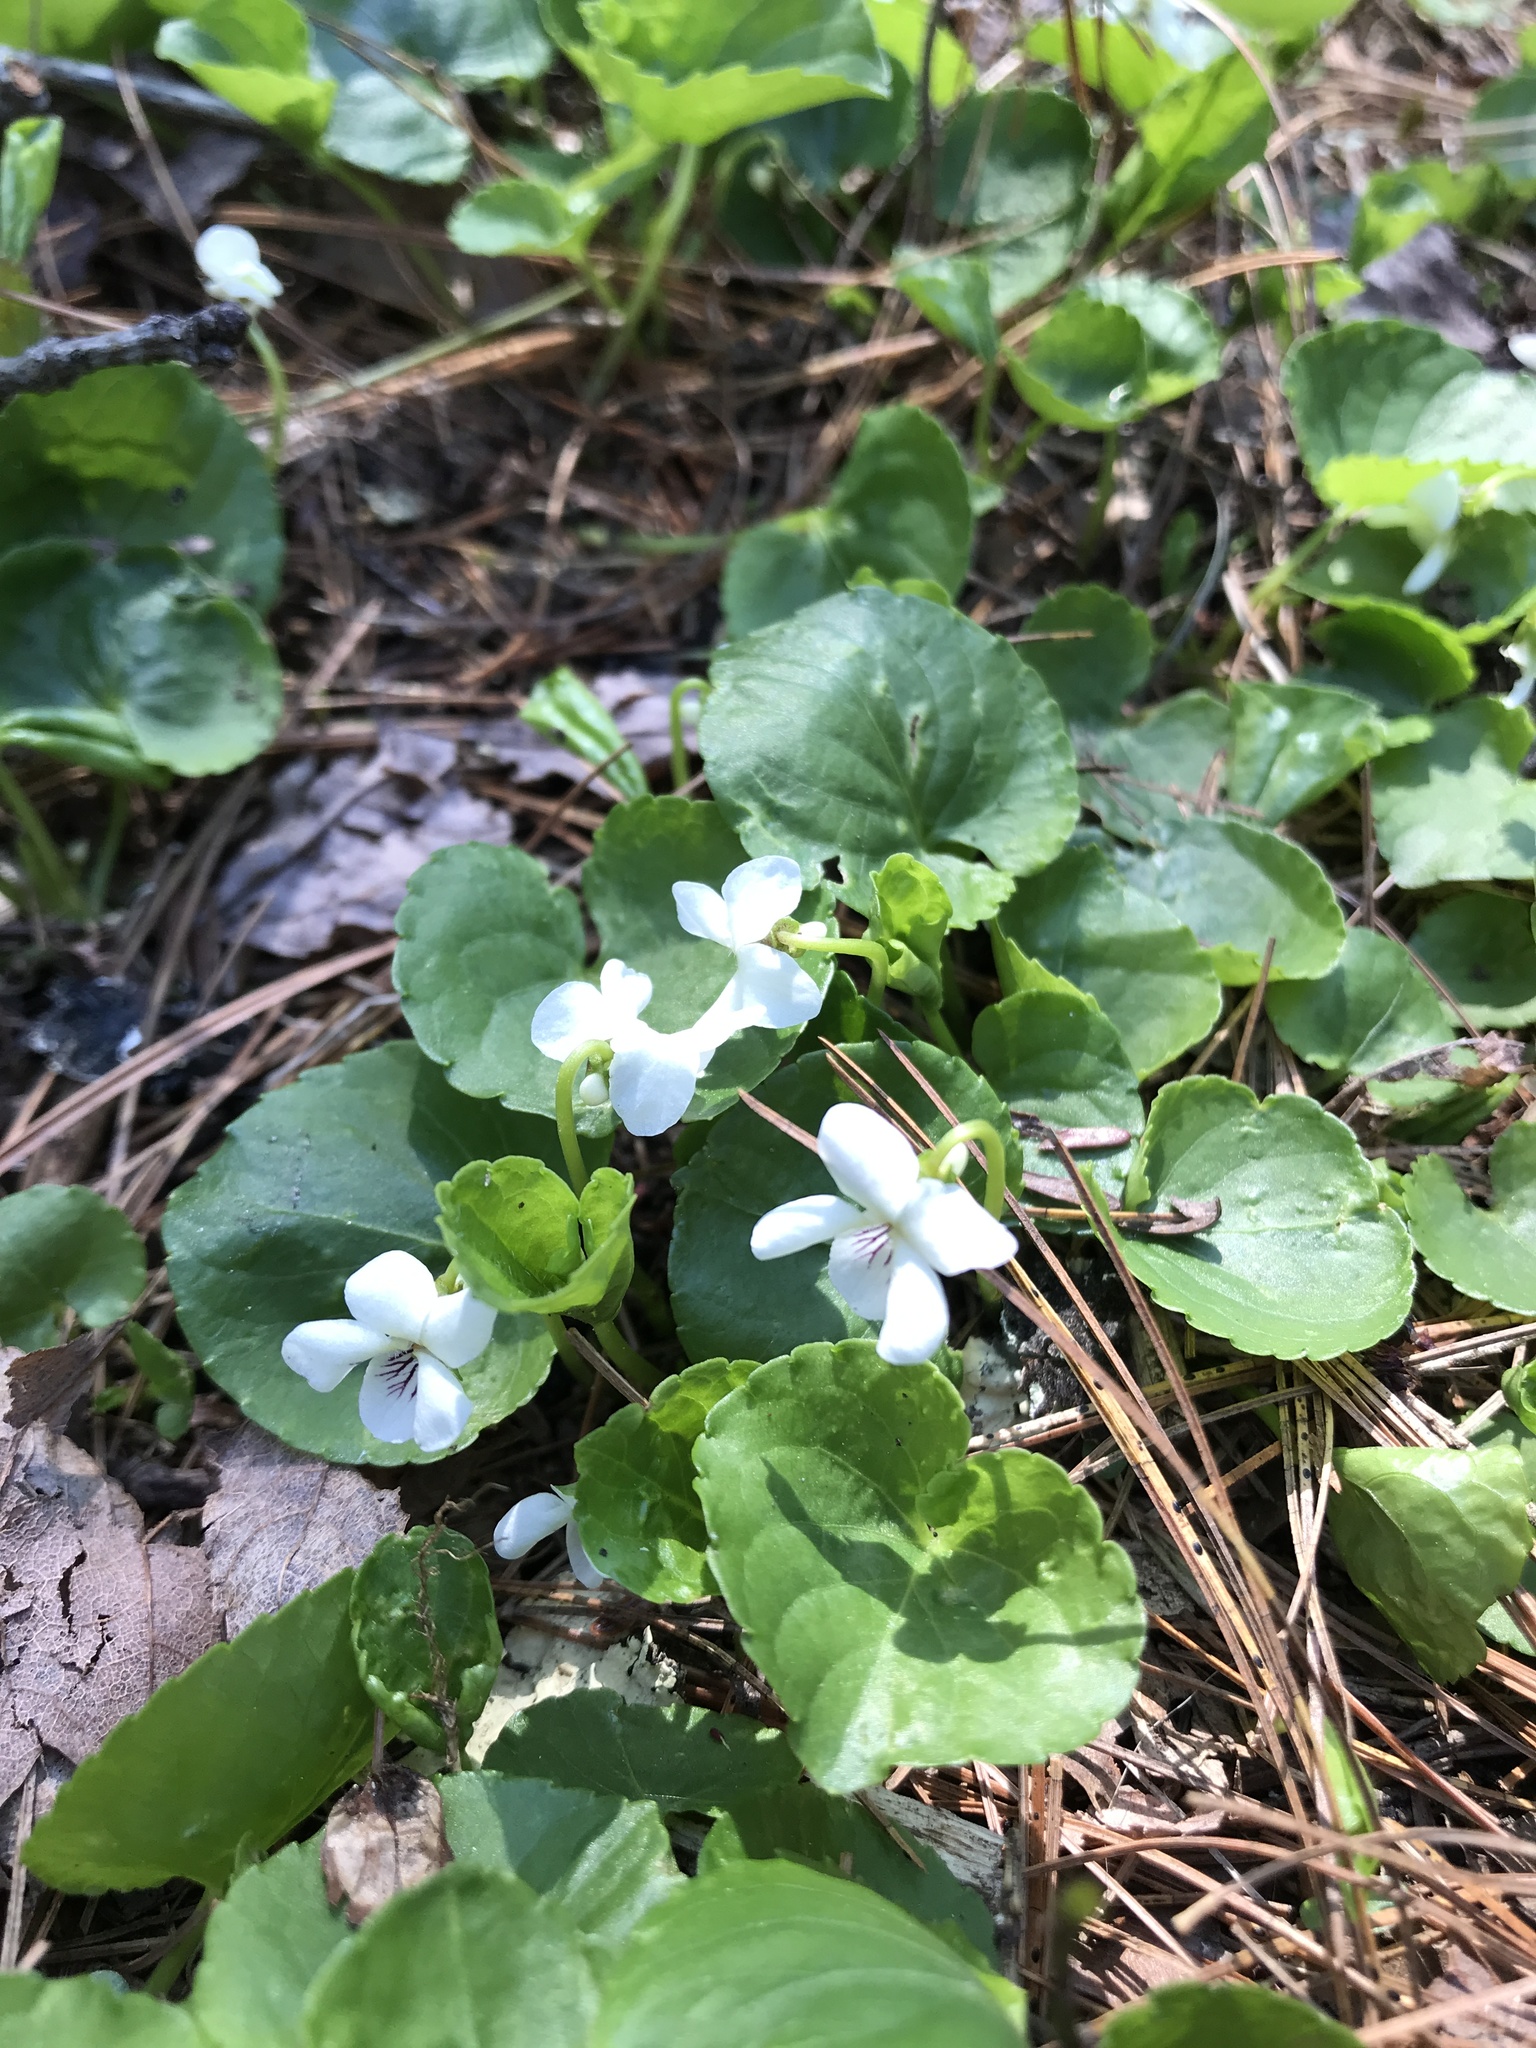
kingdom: Plantae
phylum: Tracheophyta
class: Magnoliopsida
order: Malpighiales
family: Violaceae
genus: Viola
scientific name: Viola minuscula
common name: Northern white violet
